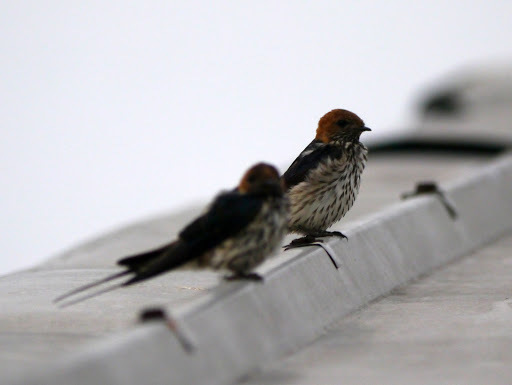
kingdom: Animalia
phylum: Chordata
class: Aves
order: Passeriformes
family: Hirundinidae
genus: Cecropis
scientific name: Cecropis abyssinica
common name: Lesser striped-swallow
